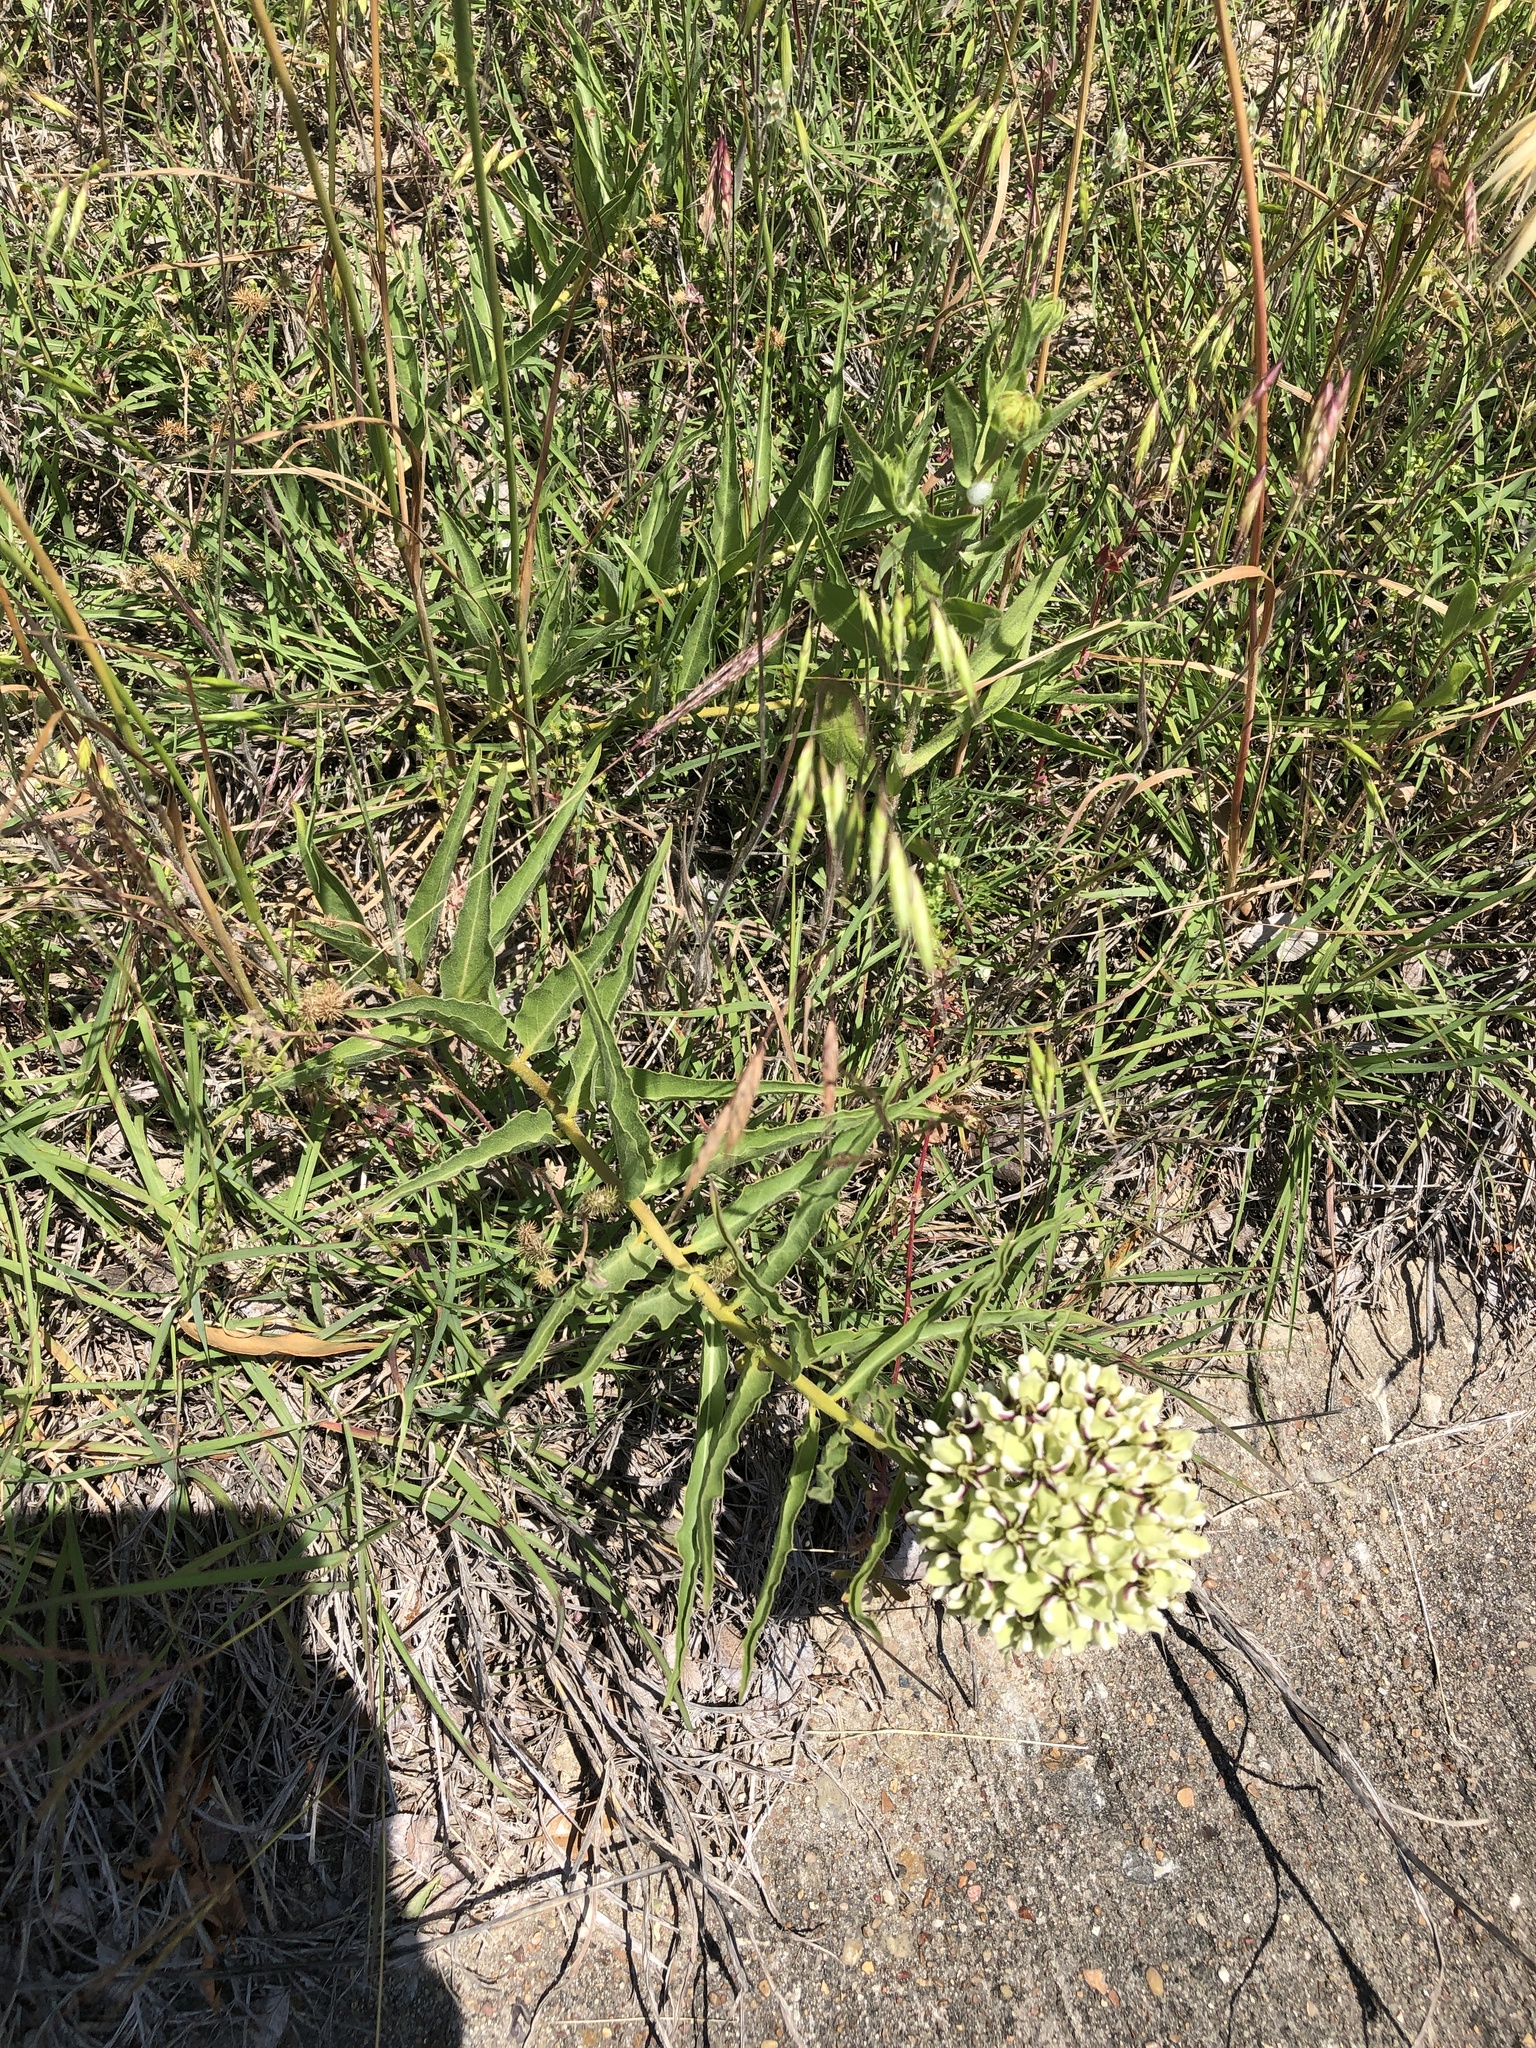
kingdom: Plantae
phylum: Tracheophyta
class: Magnoliopsida
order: Gentianales
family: Apocynaceae
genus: Asclepias
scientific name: Asclepias asperula
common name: Antelope horns
